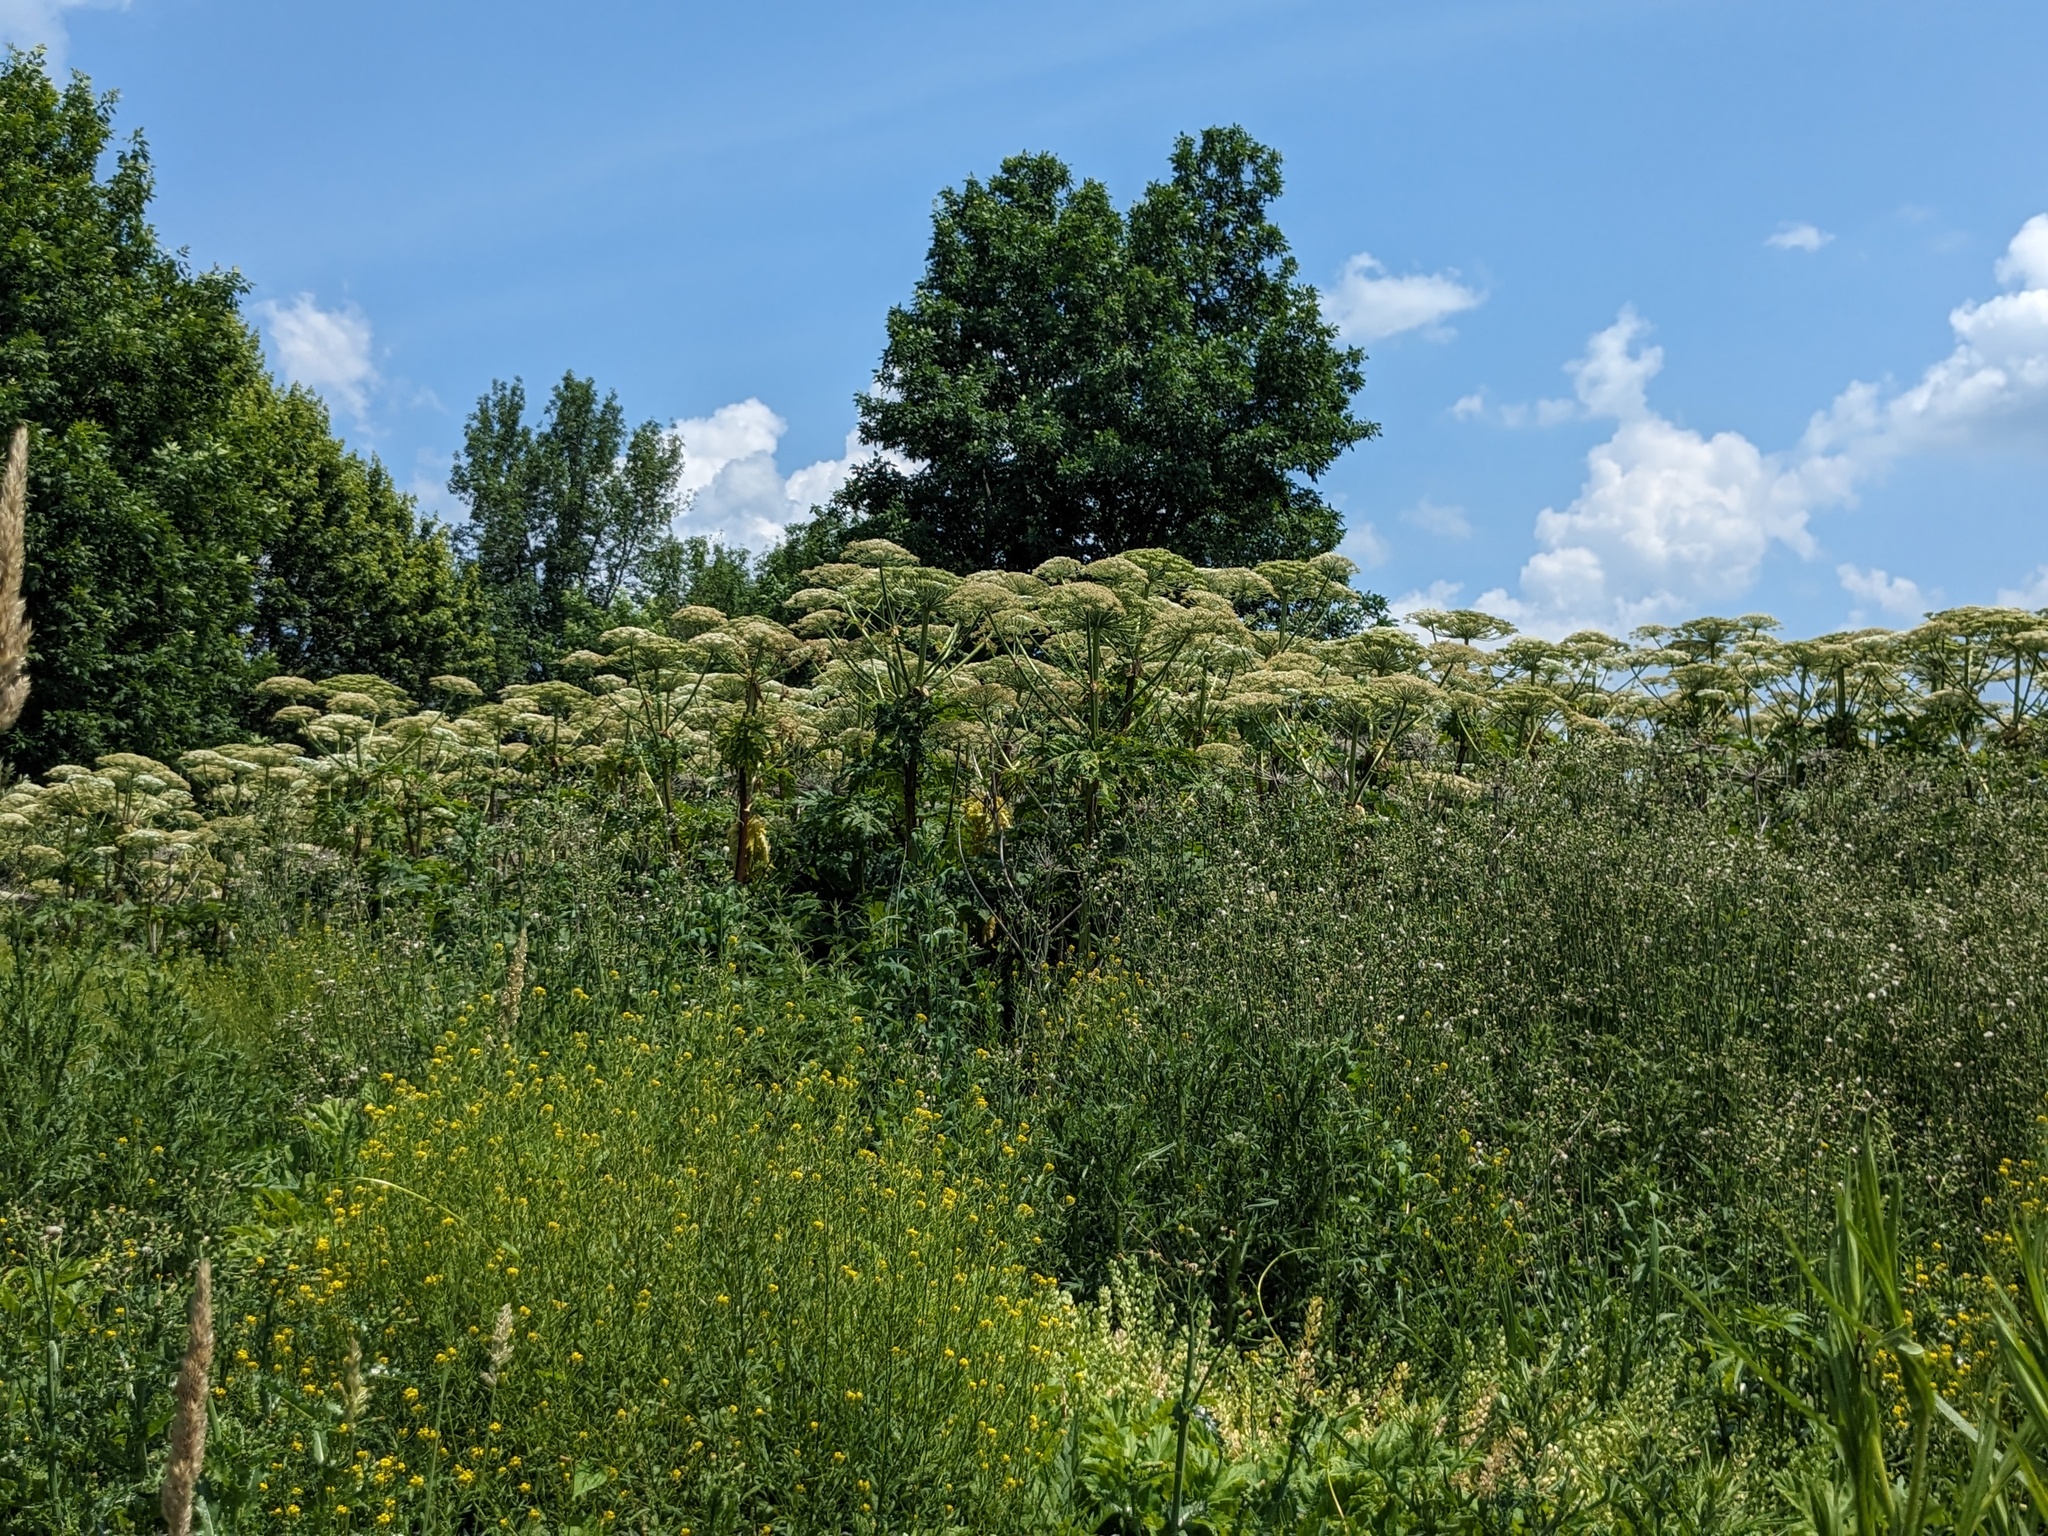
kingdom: Plantae
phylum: Tracheophyta
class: Magnoliopsida
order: Apiales
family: Apiaceae
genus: Heracleum
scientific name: Heracleum mantegazzianum
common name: Giant hogweed
